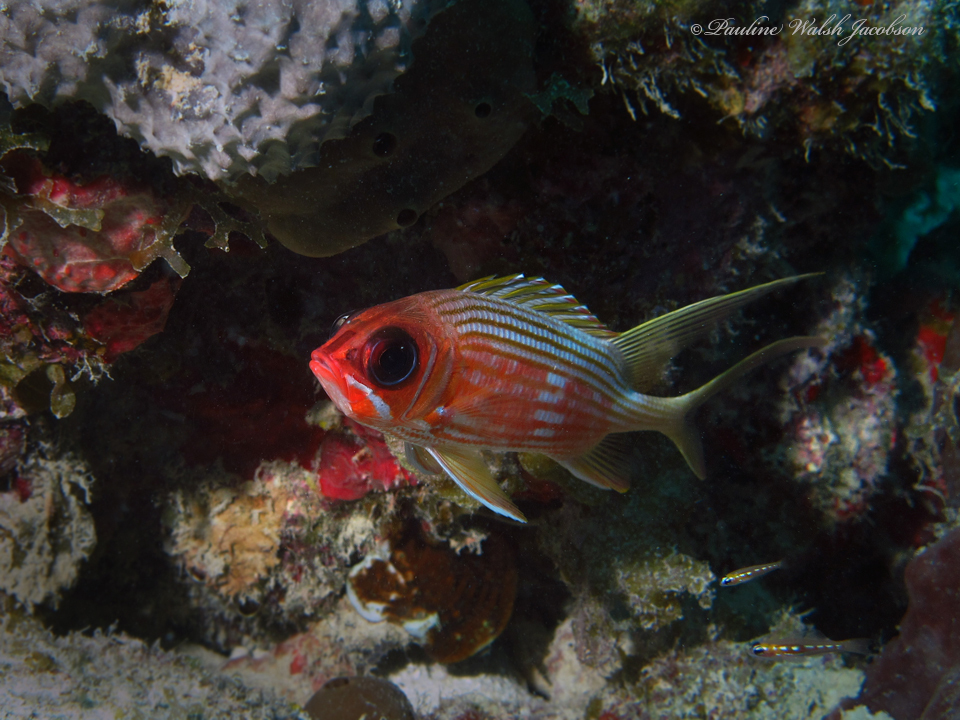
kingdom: Animalia
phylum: Chordata
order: Beryciformes
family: Holocentridae
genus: Holocentrus
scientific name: Holocentrus rufus
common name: Longspine squirrelfish
